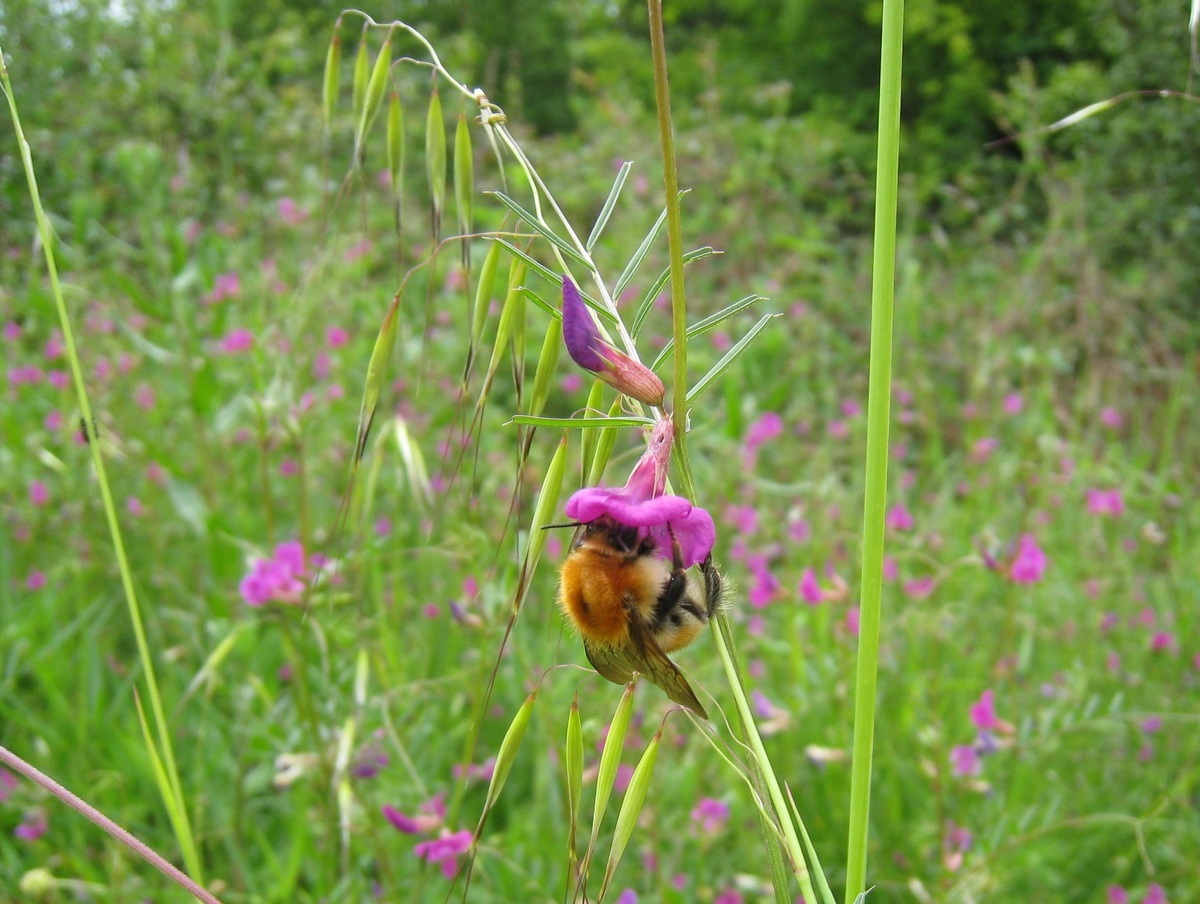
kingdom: Animalia
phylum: Arthropoda
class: Insecta
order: Hymenoptera
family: Apidae
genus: Bombus
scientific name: Bombus pascuorum
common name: Common carder bee
